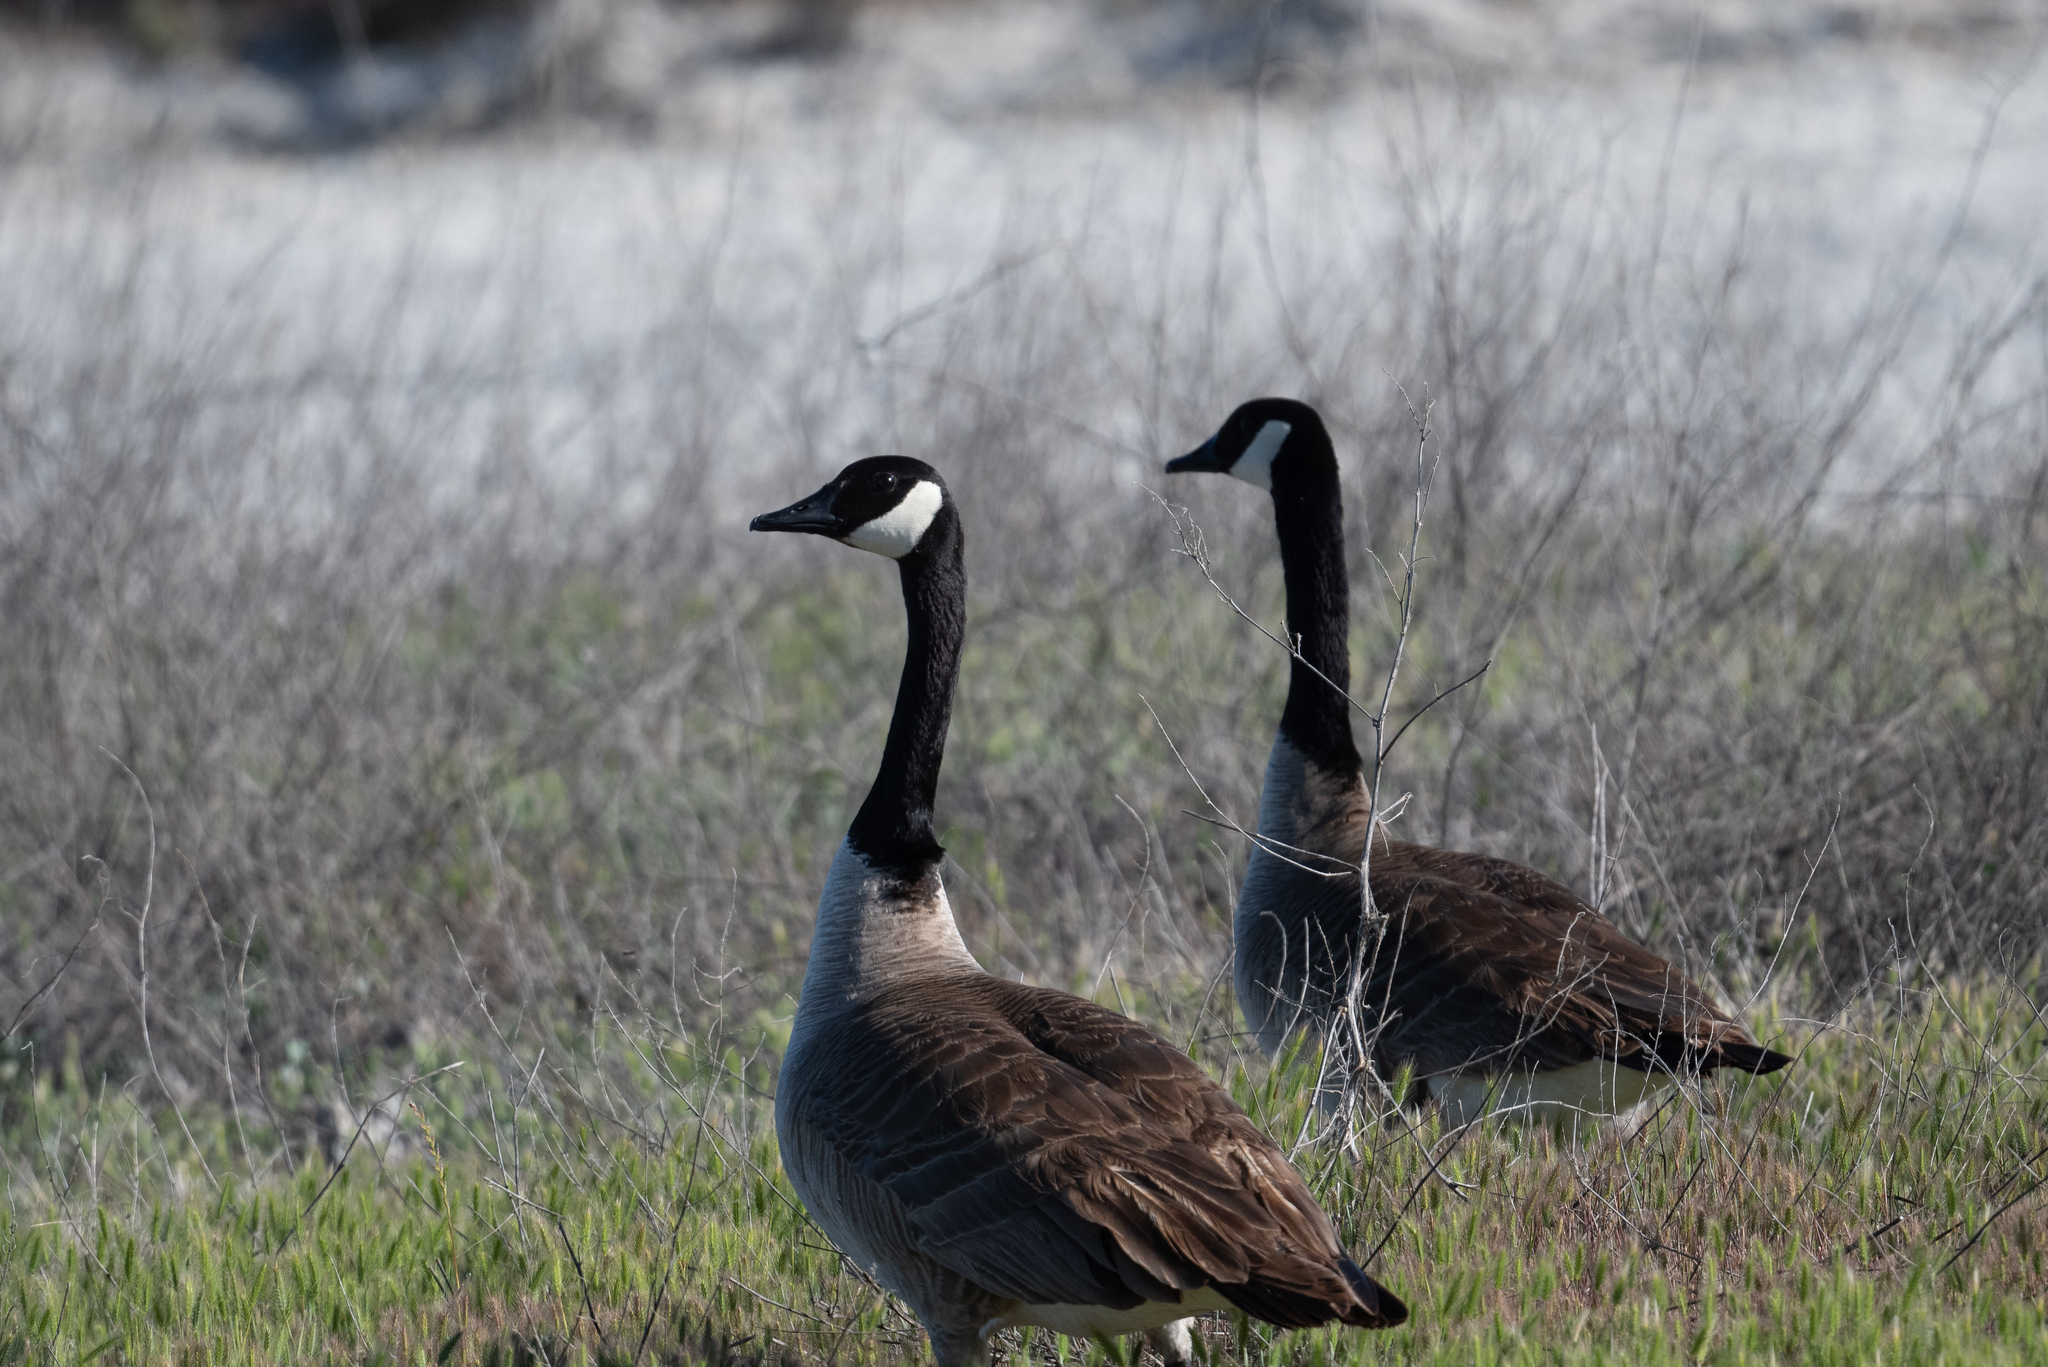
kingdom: Animalia
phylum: Chordata
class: Aves
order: Anseriformes
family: Anatidae
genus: Branta
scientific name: Branta canadensis
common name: Canada goose
